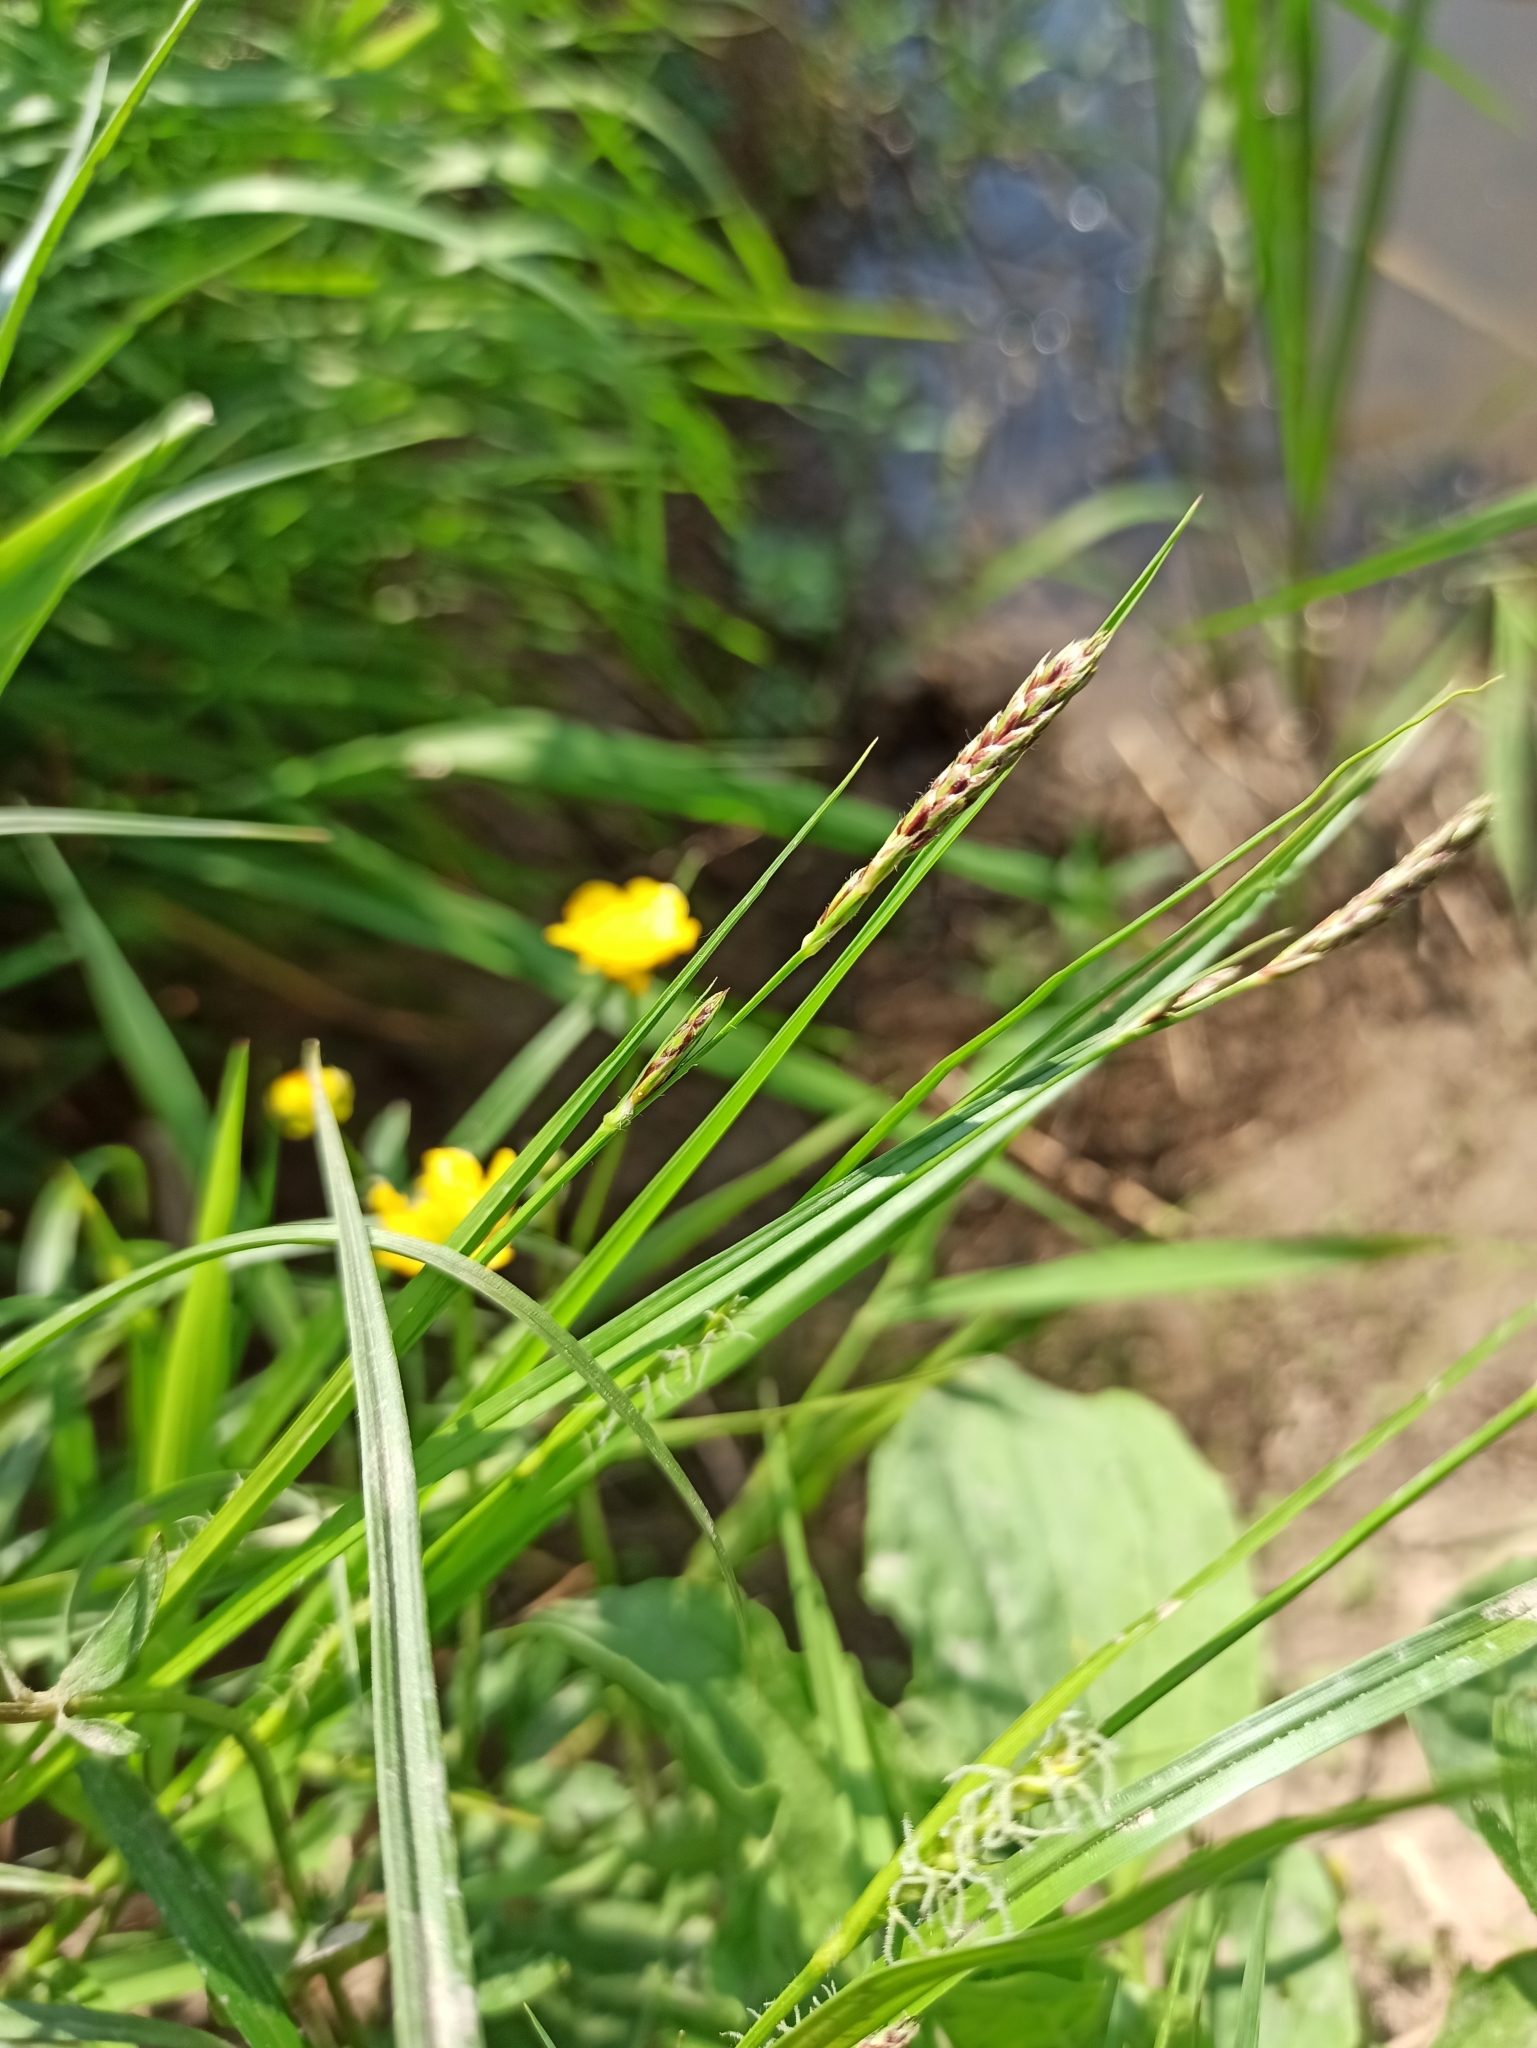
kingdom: Plantae
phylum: Tracheophyta
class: Liliopsida
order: Poales
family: Cyperaceae
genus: Carex
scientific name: Carex hirta
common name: Hairy sedge
